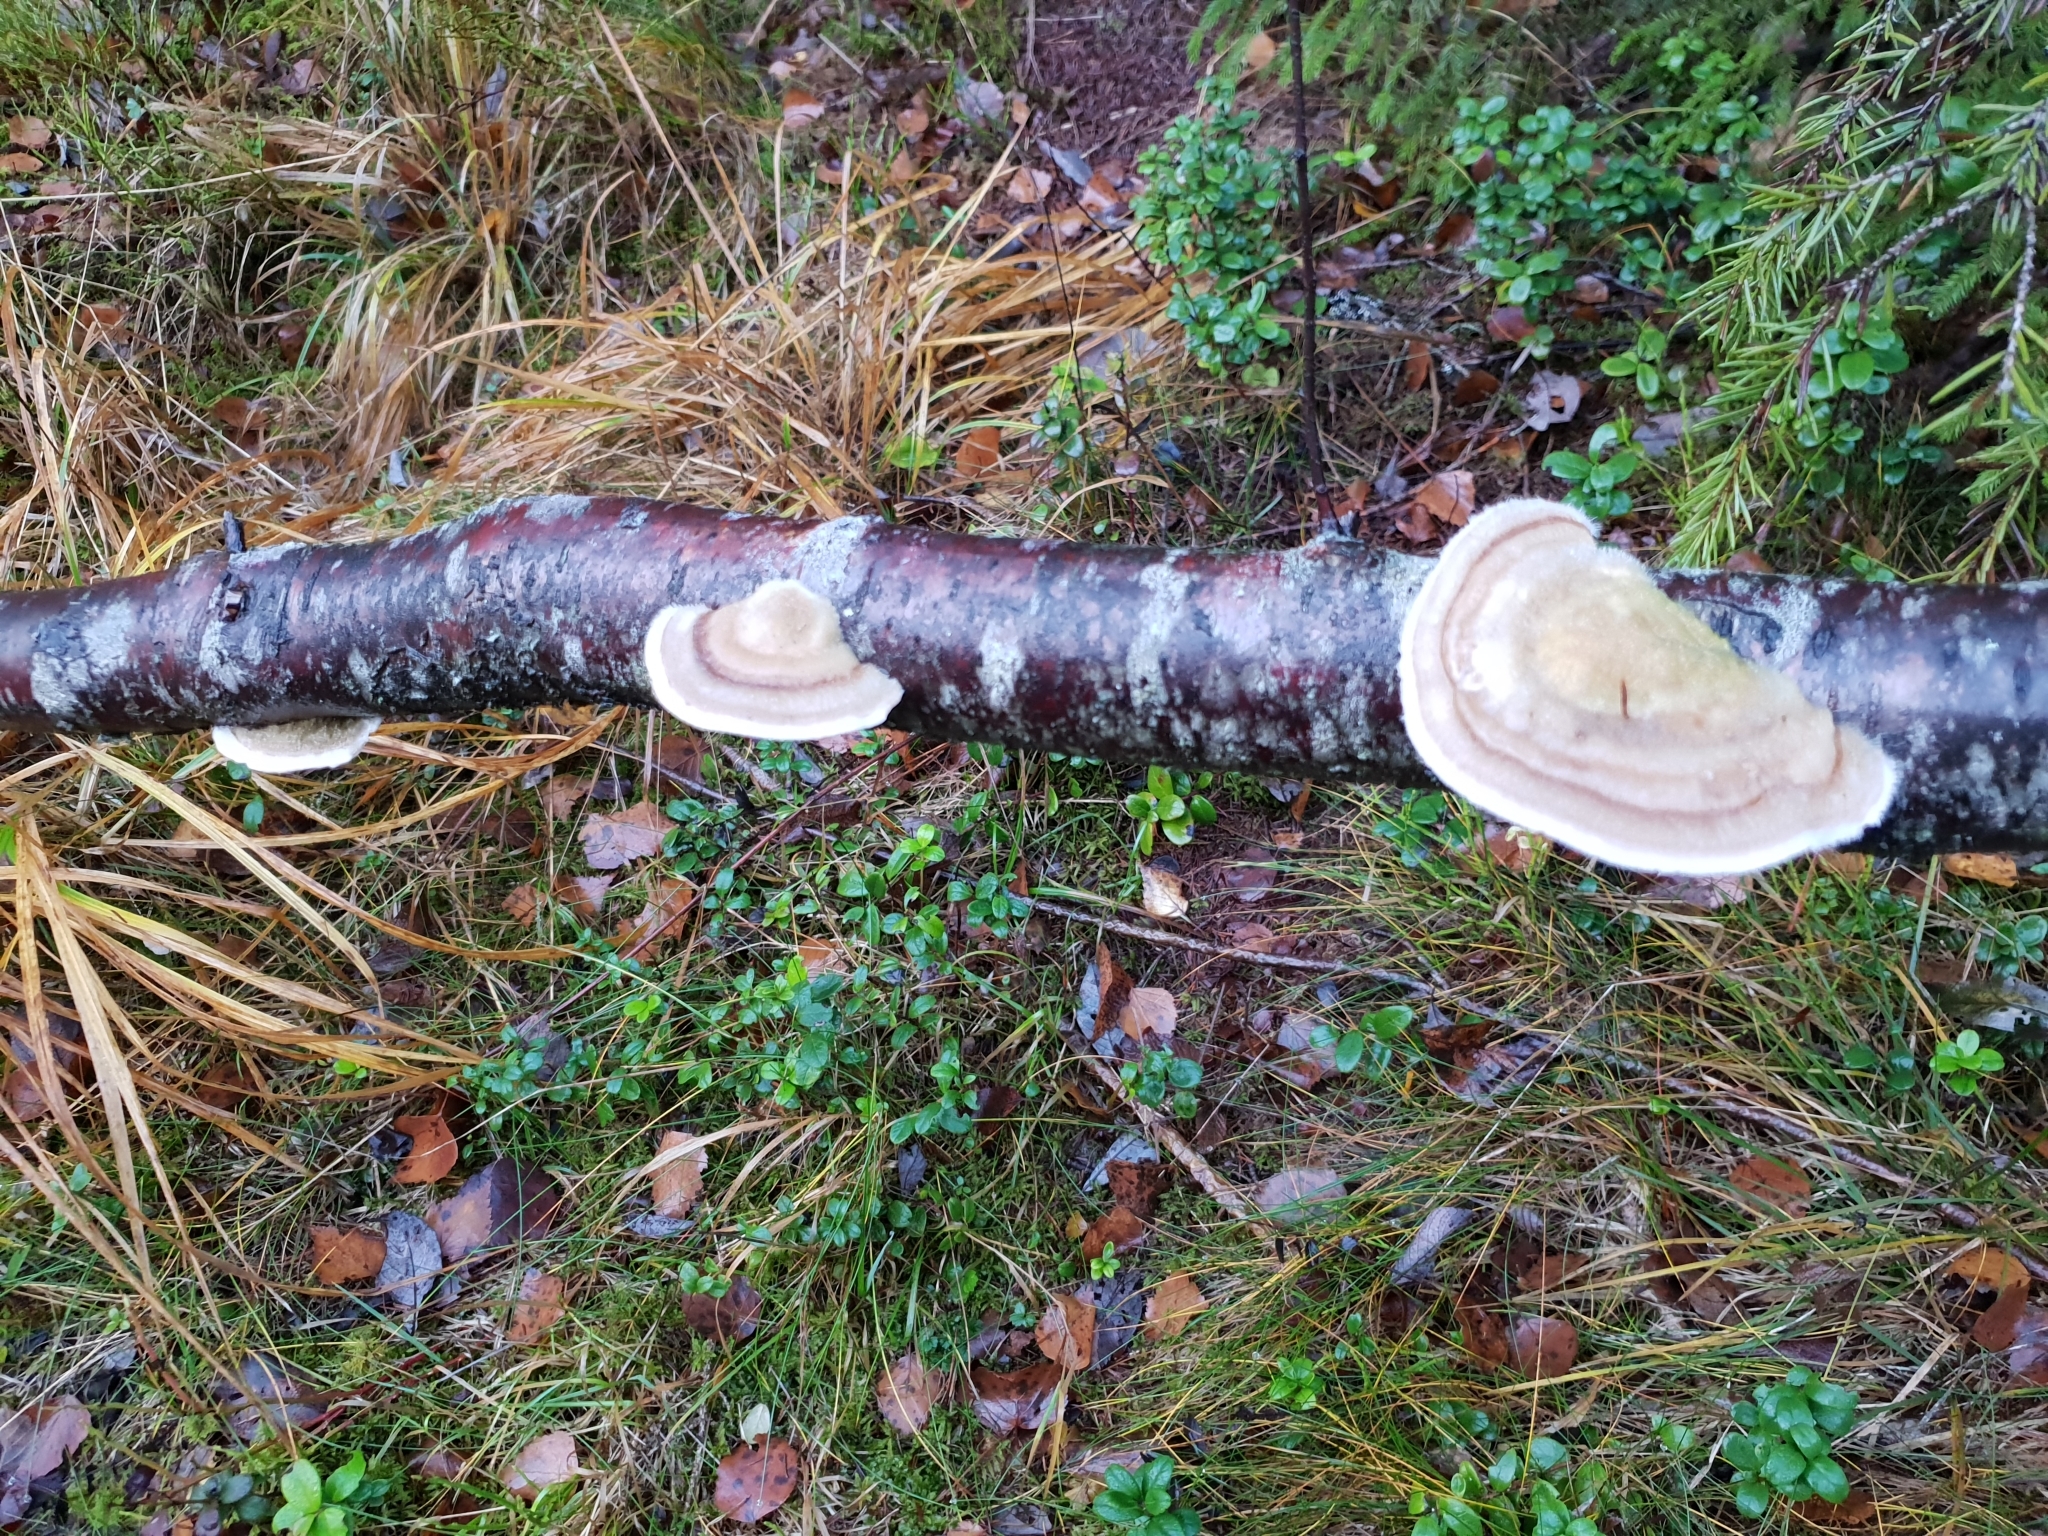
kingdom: Fungi
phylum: Basidiomycota
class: Agaricomycetes
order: Polyporales
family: Polyporaceae
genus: Trametes
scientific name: Trametes hirsuta
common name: Hairy bracket
